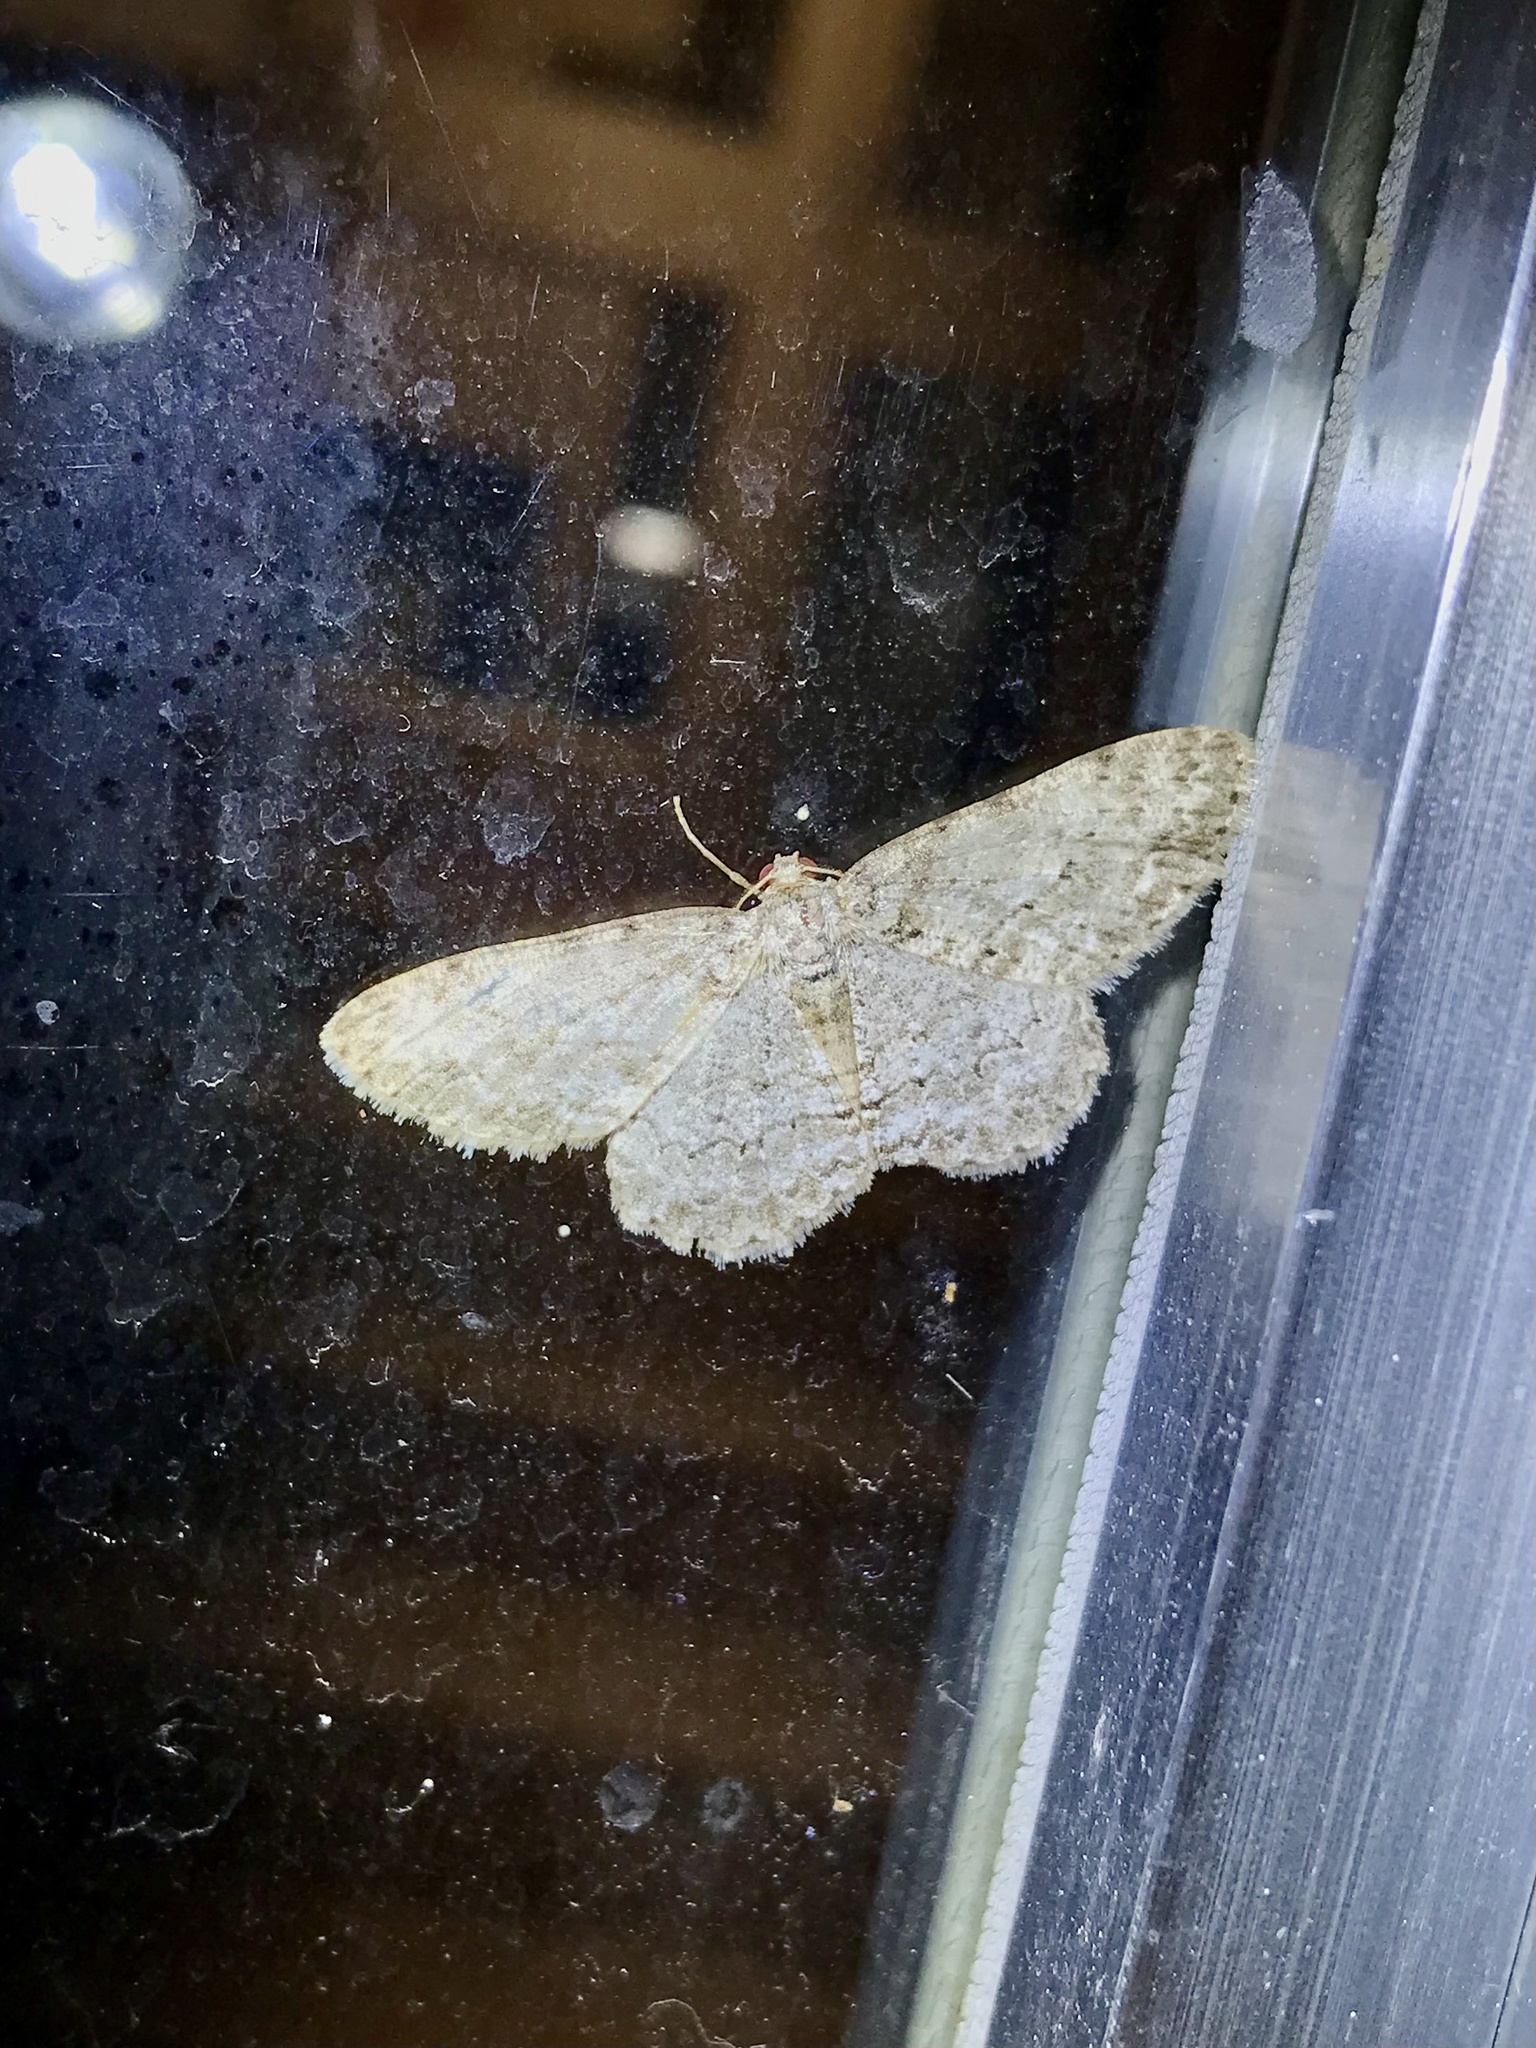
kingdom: Animalia
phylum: Arthropoda
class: Insecta
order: Lepidoptera
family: Geometridae
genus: Ectropis
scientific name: Ectropis crepuscularia
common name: Engrailed
